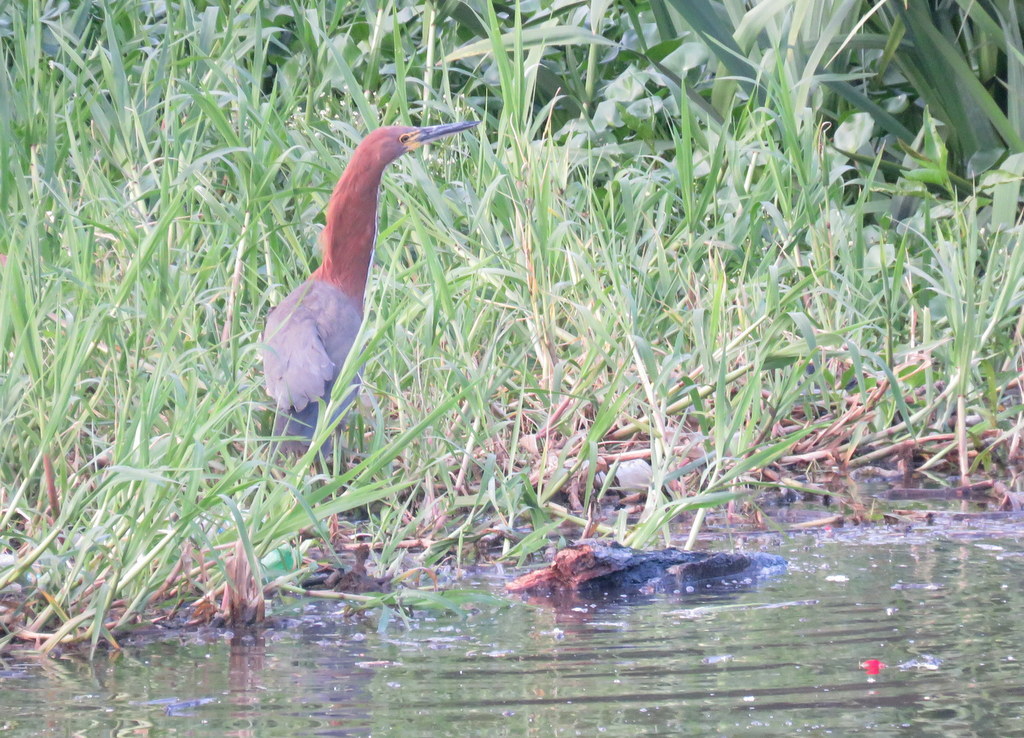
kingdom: Animalia
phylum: Chordata
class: Aves
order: Pelecaniformes
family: Ardeidae
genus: Tigrisoma
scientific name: Tigrisoma lineatum
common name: Rufescent tiger-heron
